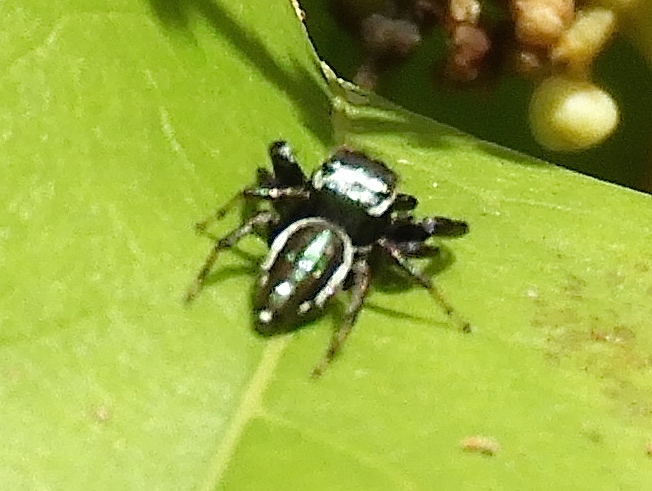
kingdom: Animalia
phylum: Arthropoda
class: Arachnida
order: Araneae
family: Salticidae
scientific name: Salticidae
